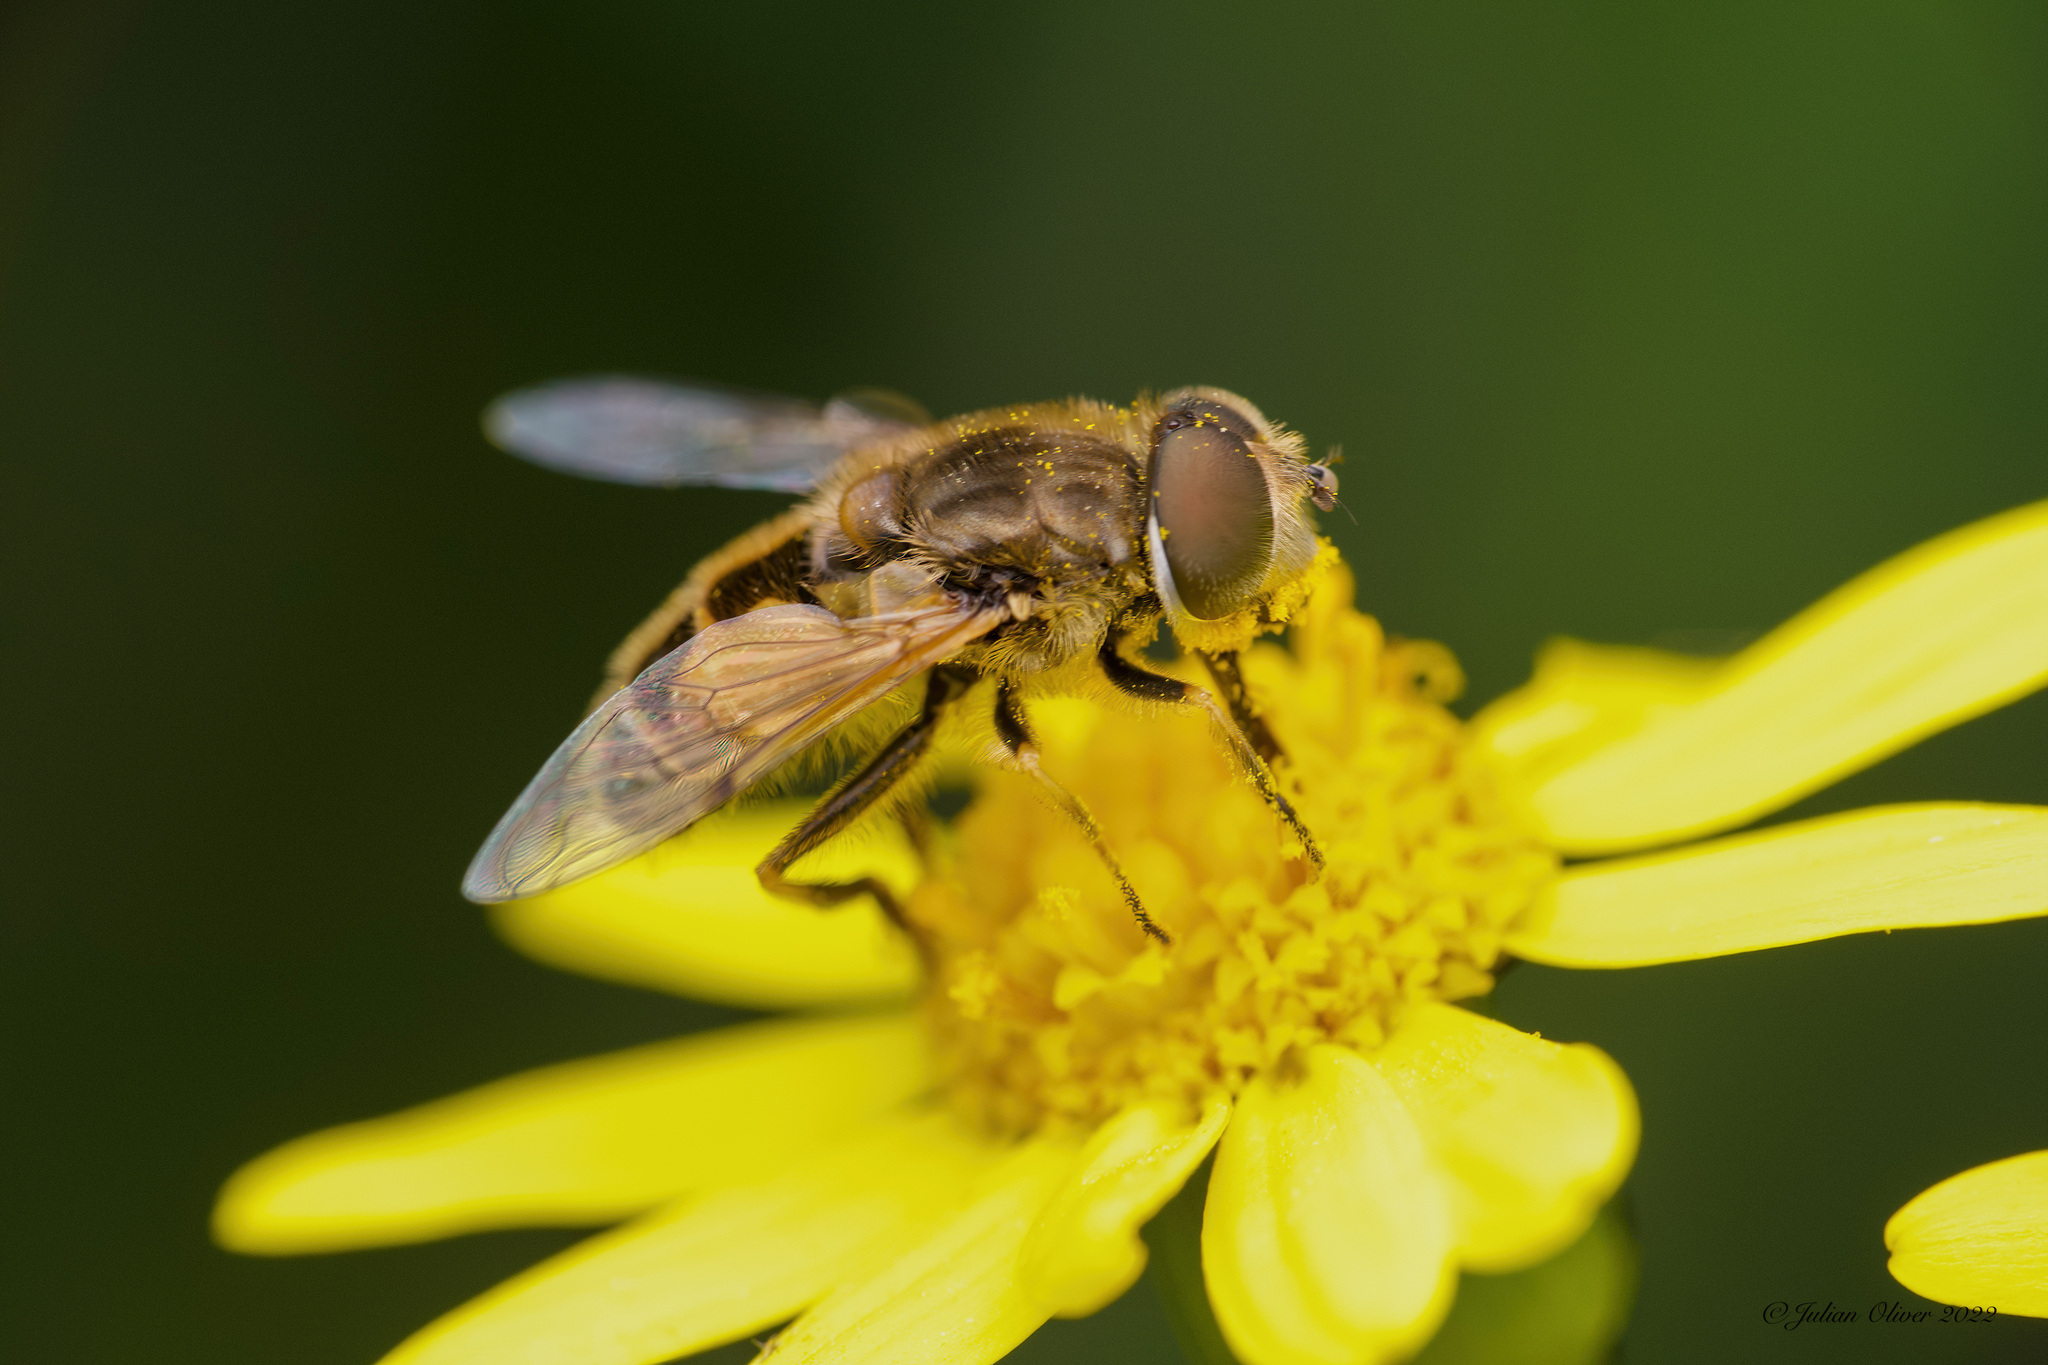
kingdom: Animalia
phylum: Arthropoda
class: Insecta
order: Diptera
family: Syrphidae
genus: Eristalis
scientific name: Eristalis arbustorum
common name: Hover fly
